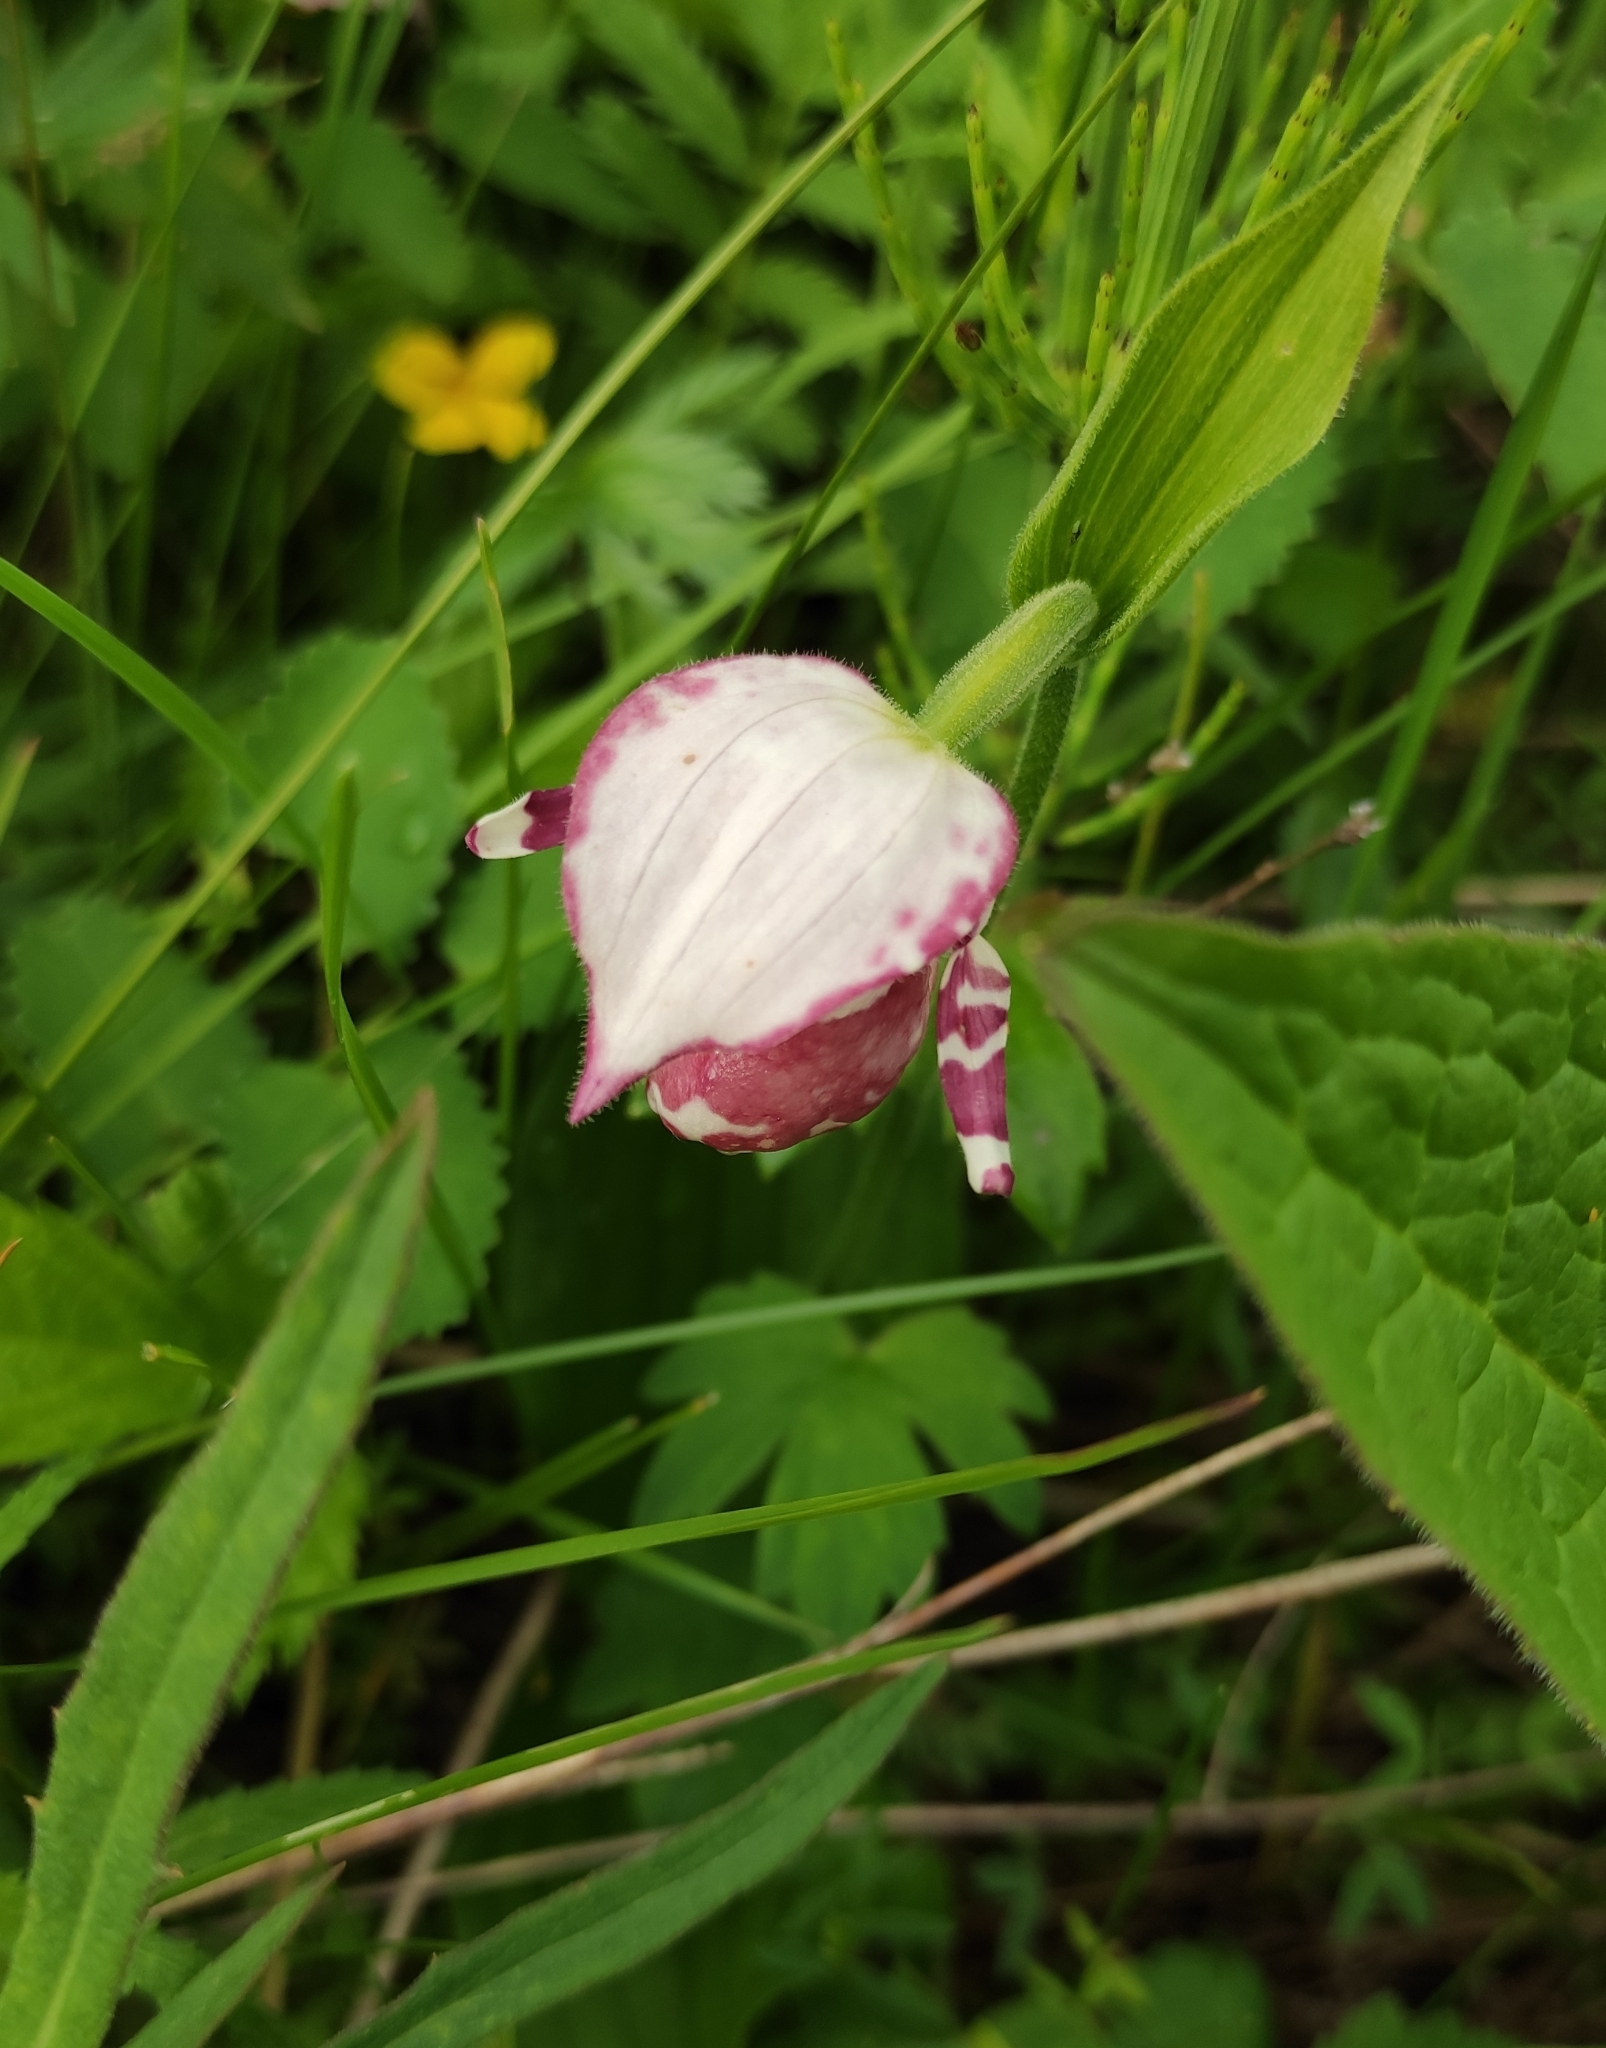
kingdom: Plantae
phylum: Tracheophyta
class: Liliopsida
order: Asparagales
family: Orchidaceae
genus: Cypripedium
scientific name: Cypripedium guttatum
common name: Pink lady slipper
